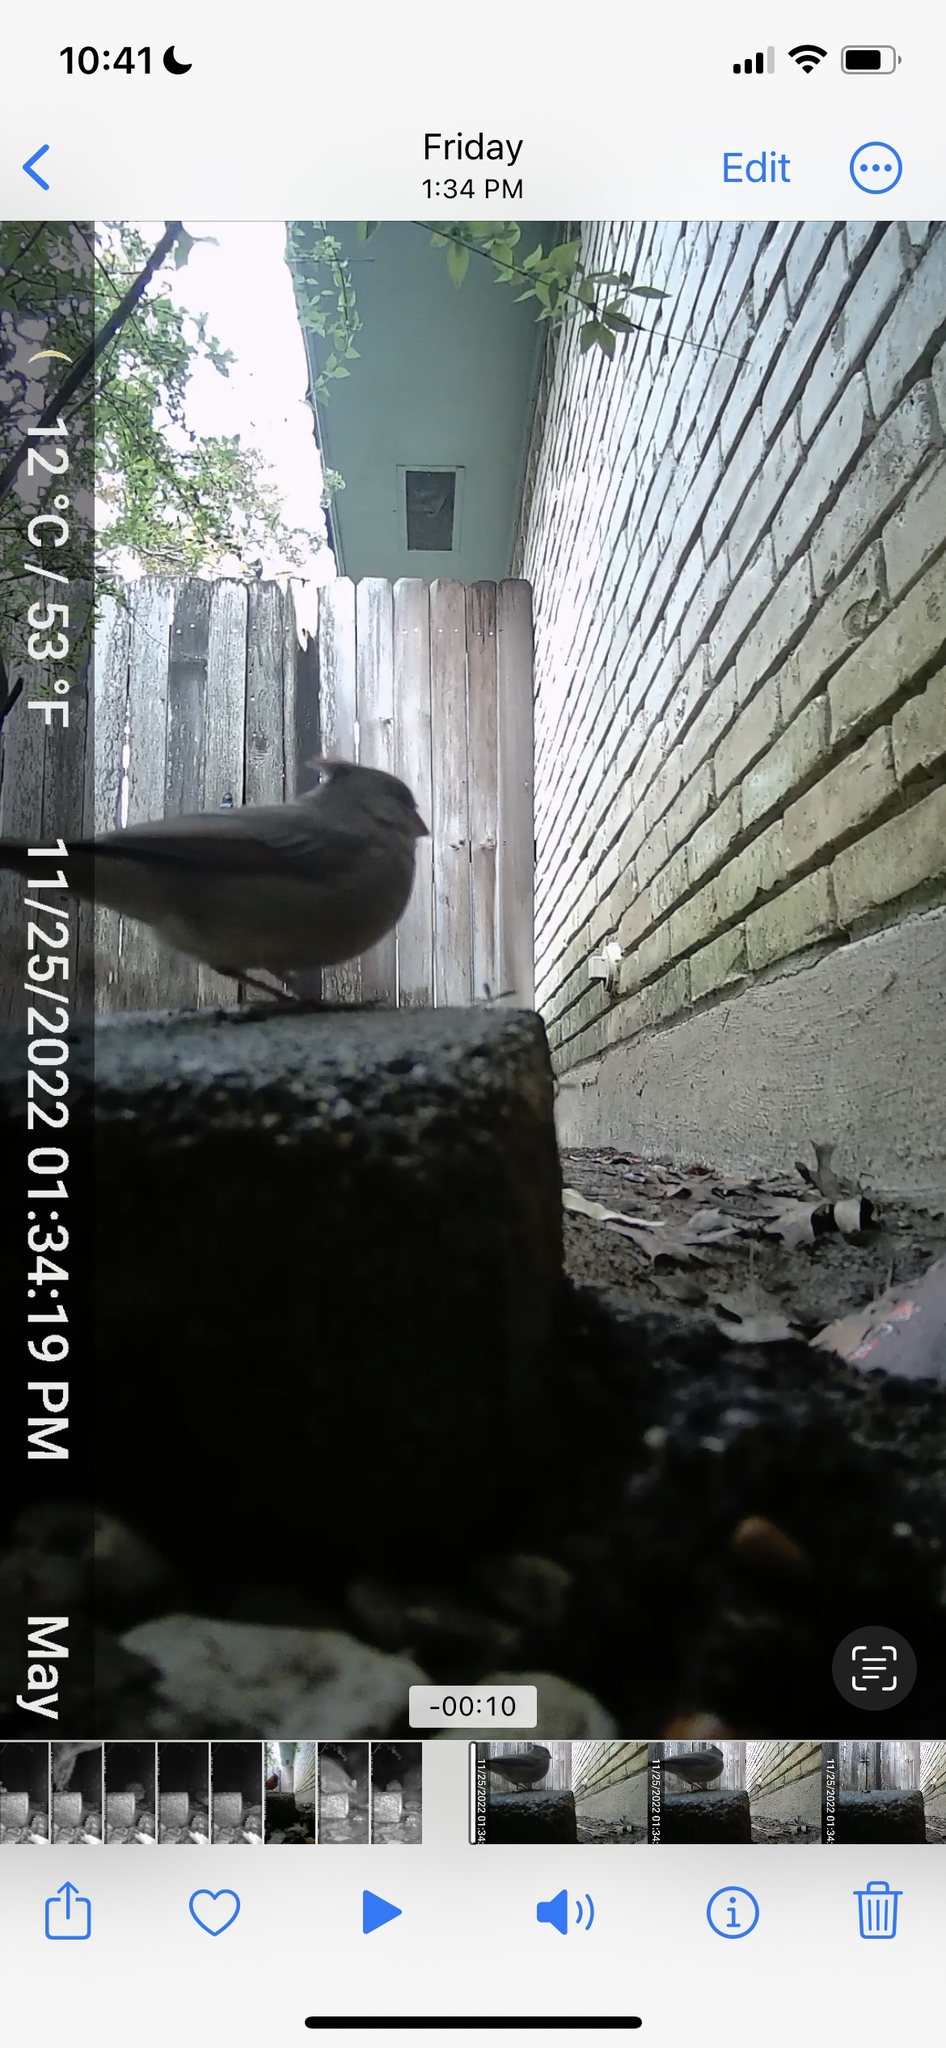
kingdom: Animalia
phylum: Chordata
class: Aves
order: Passeriformes
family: Cardinalidae
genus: Cardinalis
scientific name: Cardinalis cardinalis
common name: Northern cardinal
